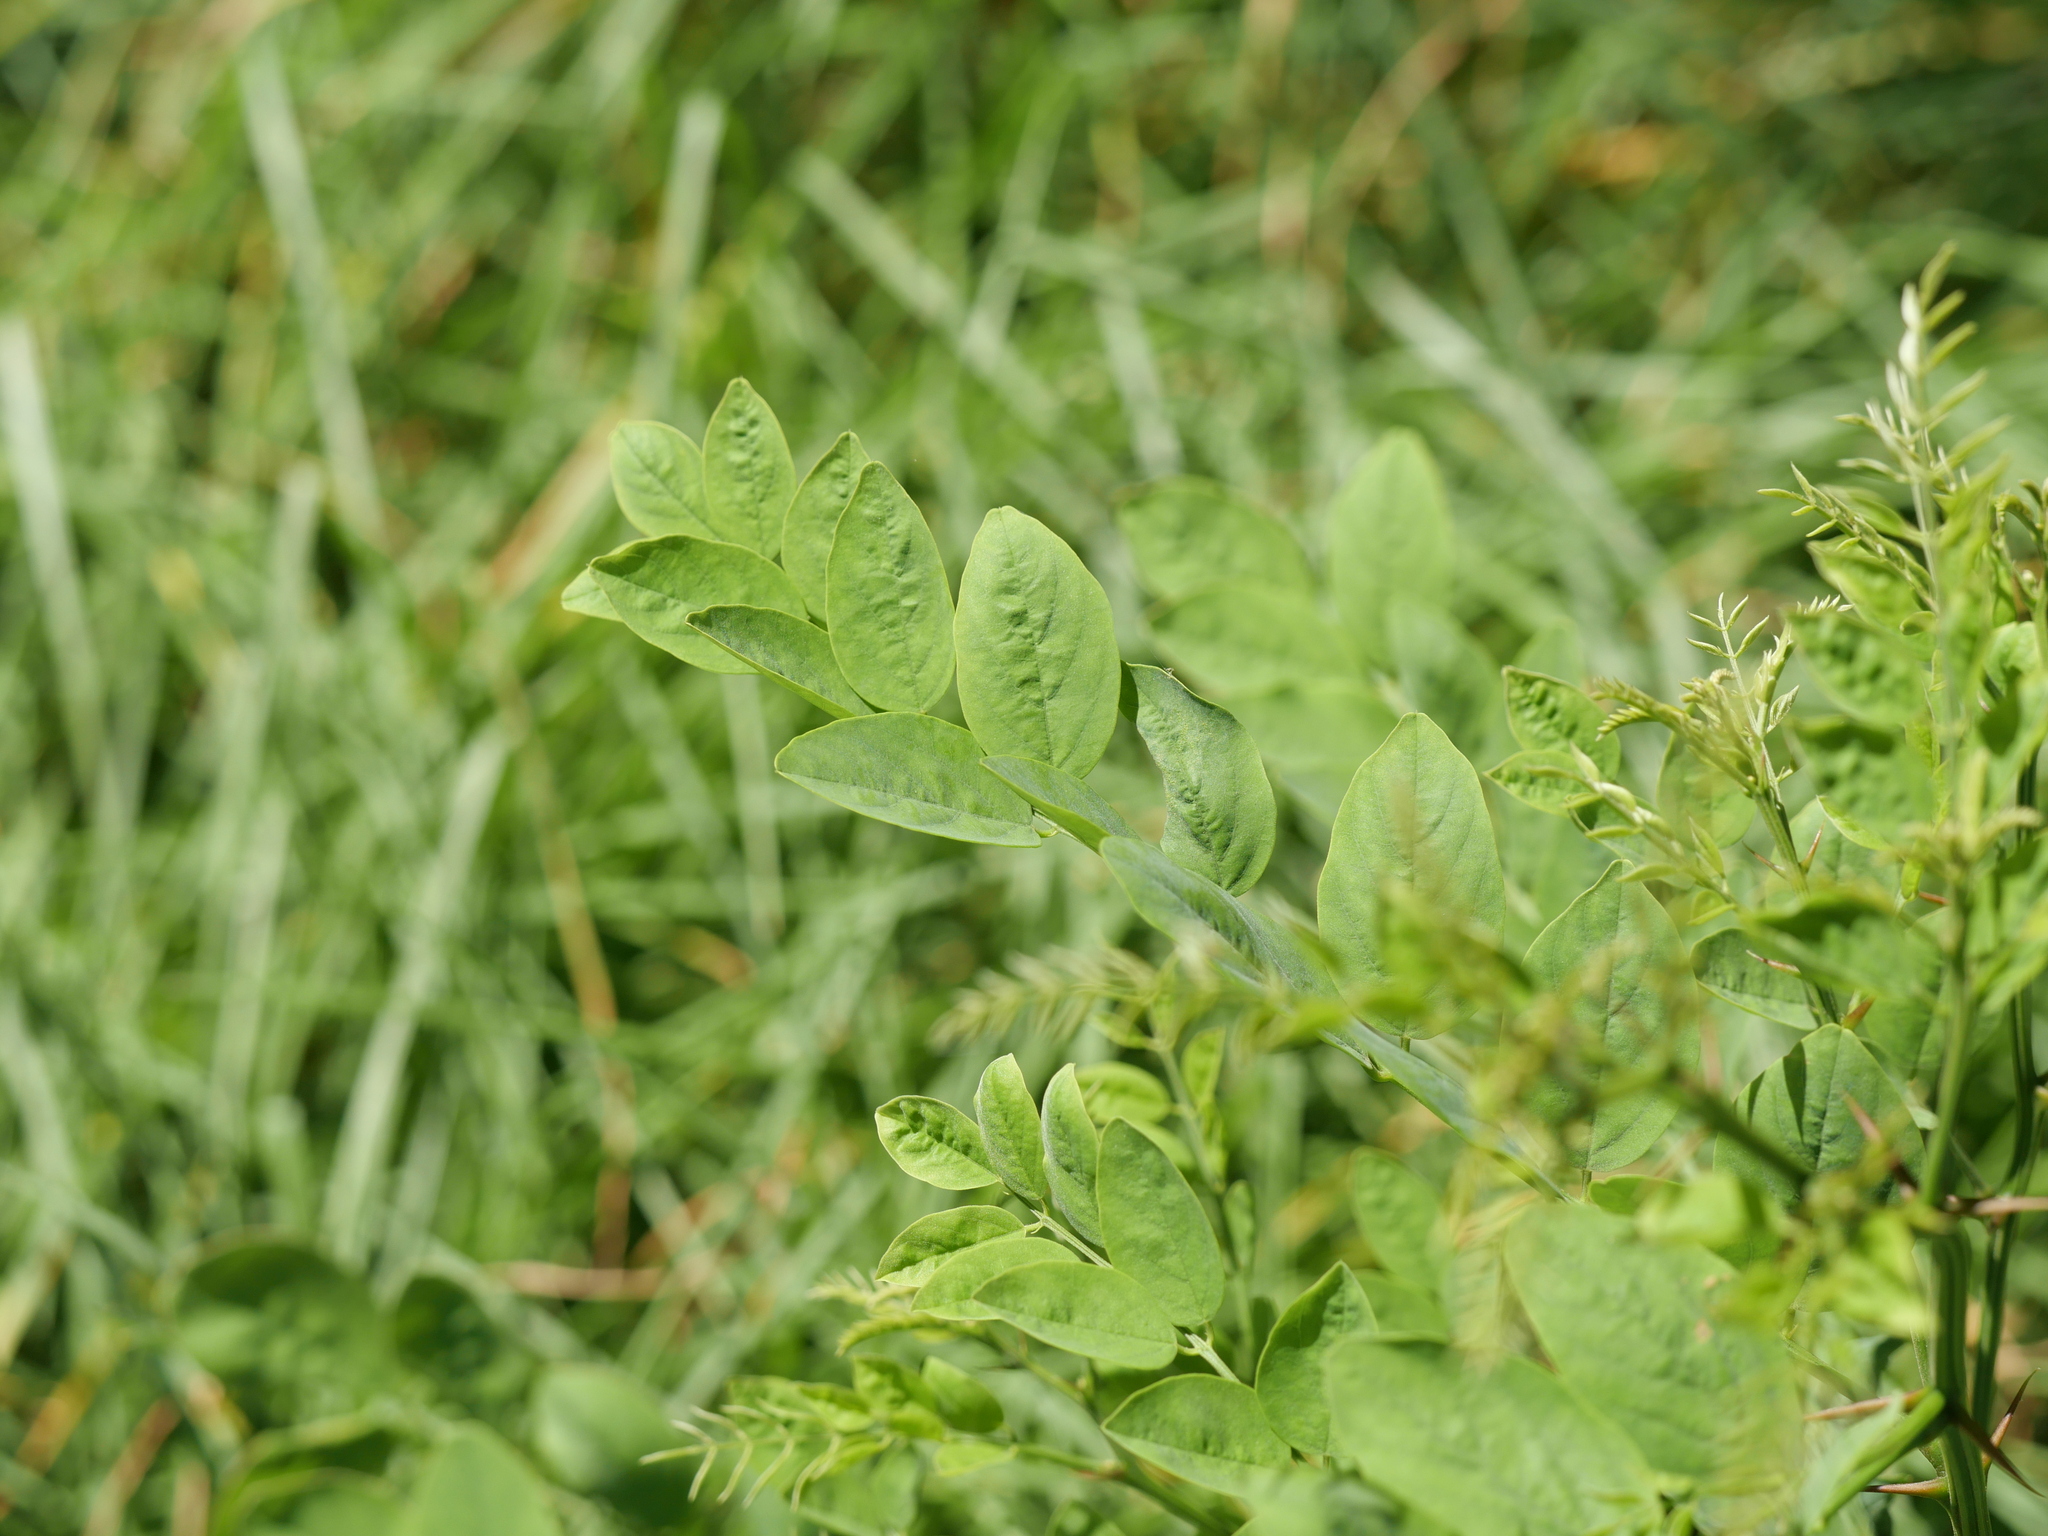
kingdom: Plantae
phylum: Tracheophyta
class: Magnoliopsida
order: Fabales
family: Fabaceae
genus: Robinia
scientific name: Robinia pseudoacacia
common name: Black locust
